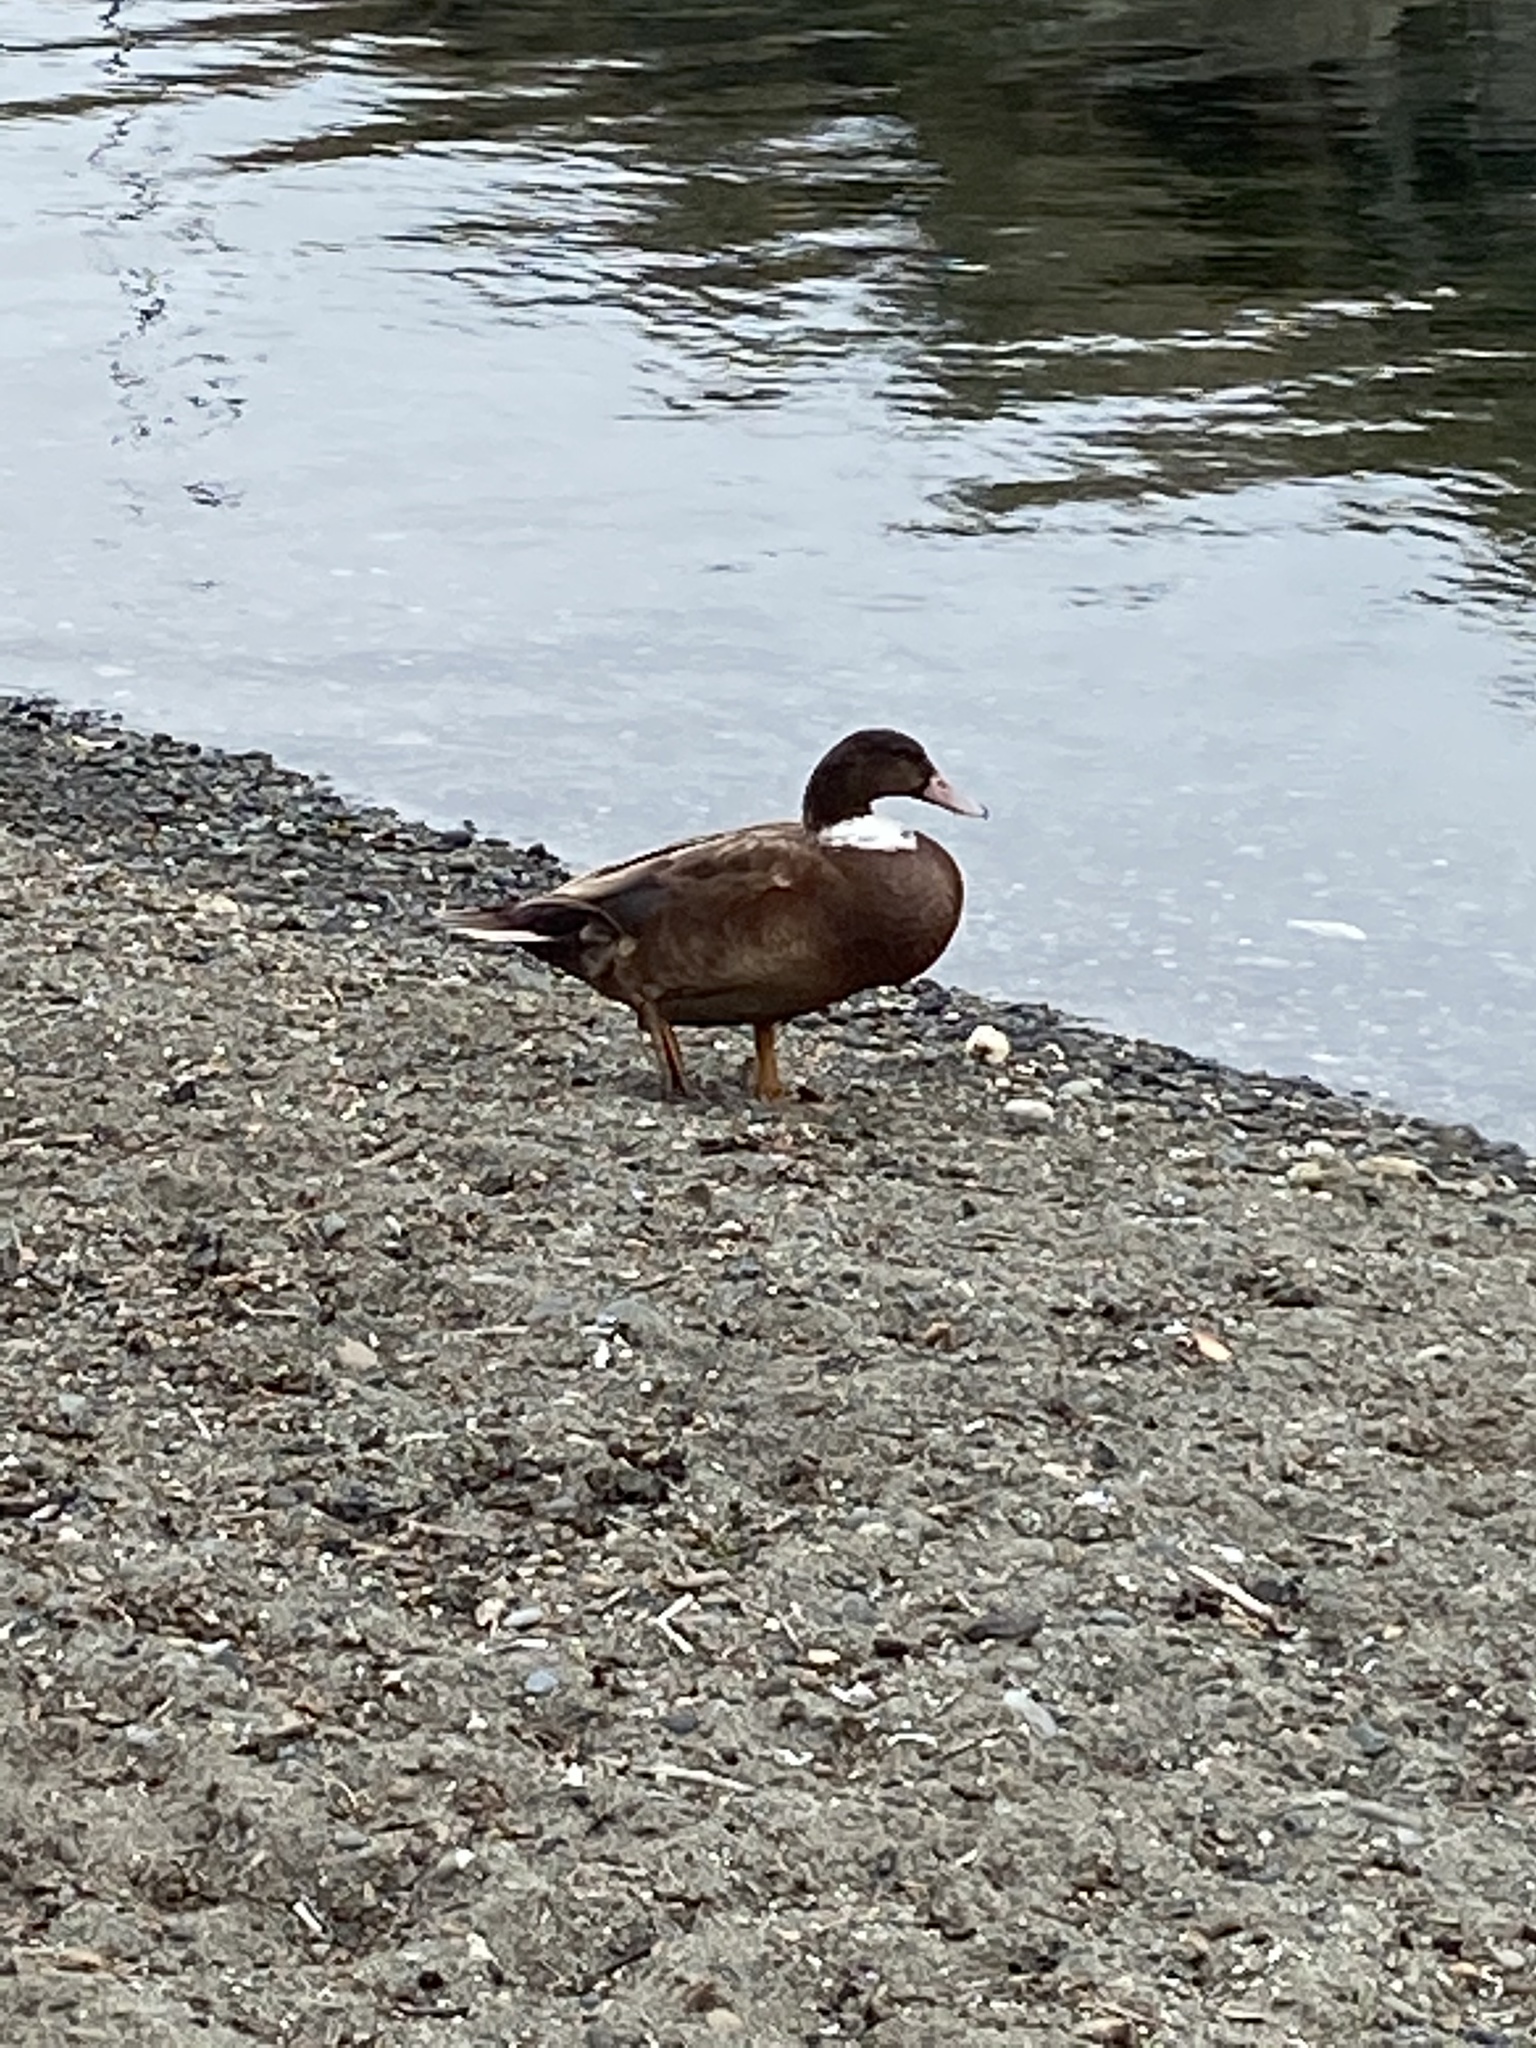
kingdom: Animalia
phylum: Chordata
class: Aves
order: Anseriformes
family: Anatidae
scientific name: Anatidae
